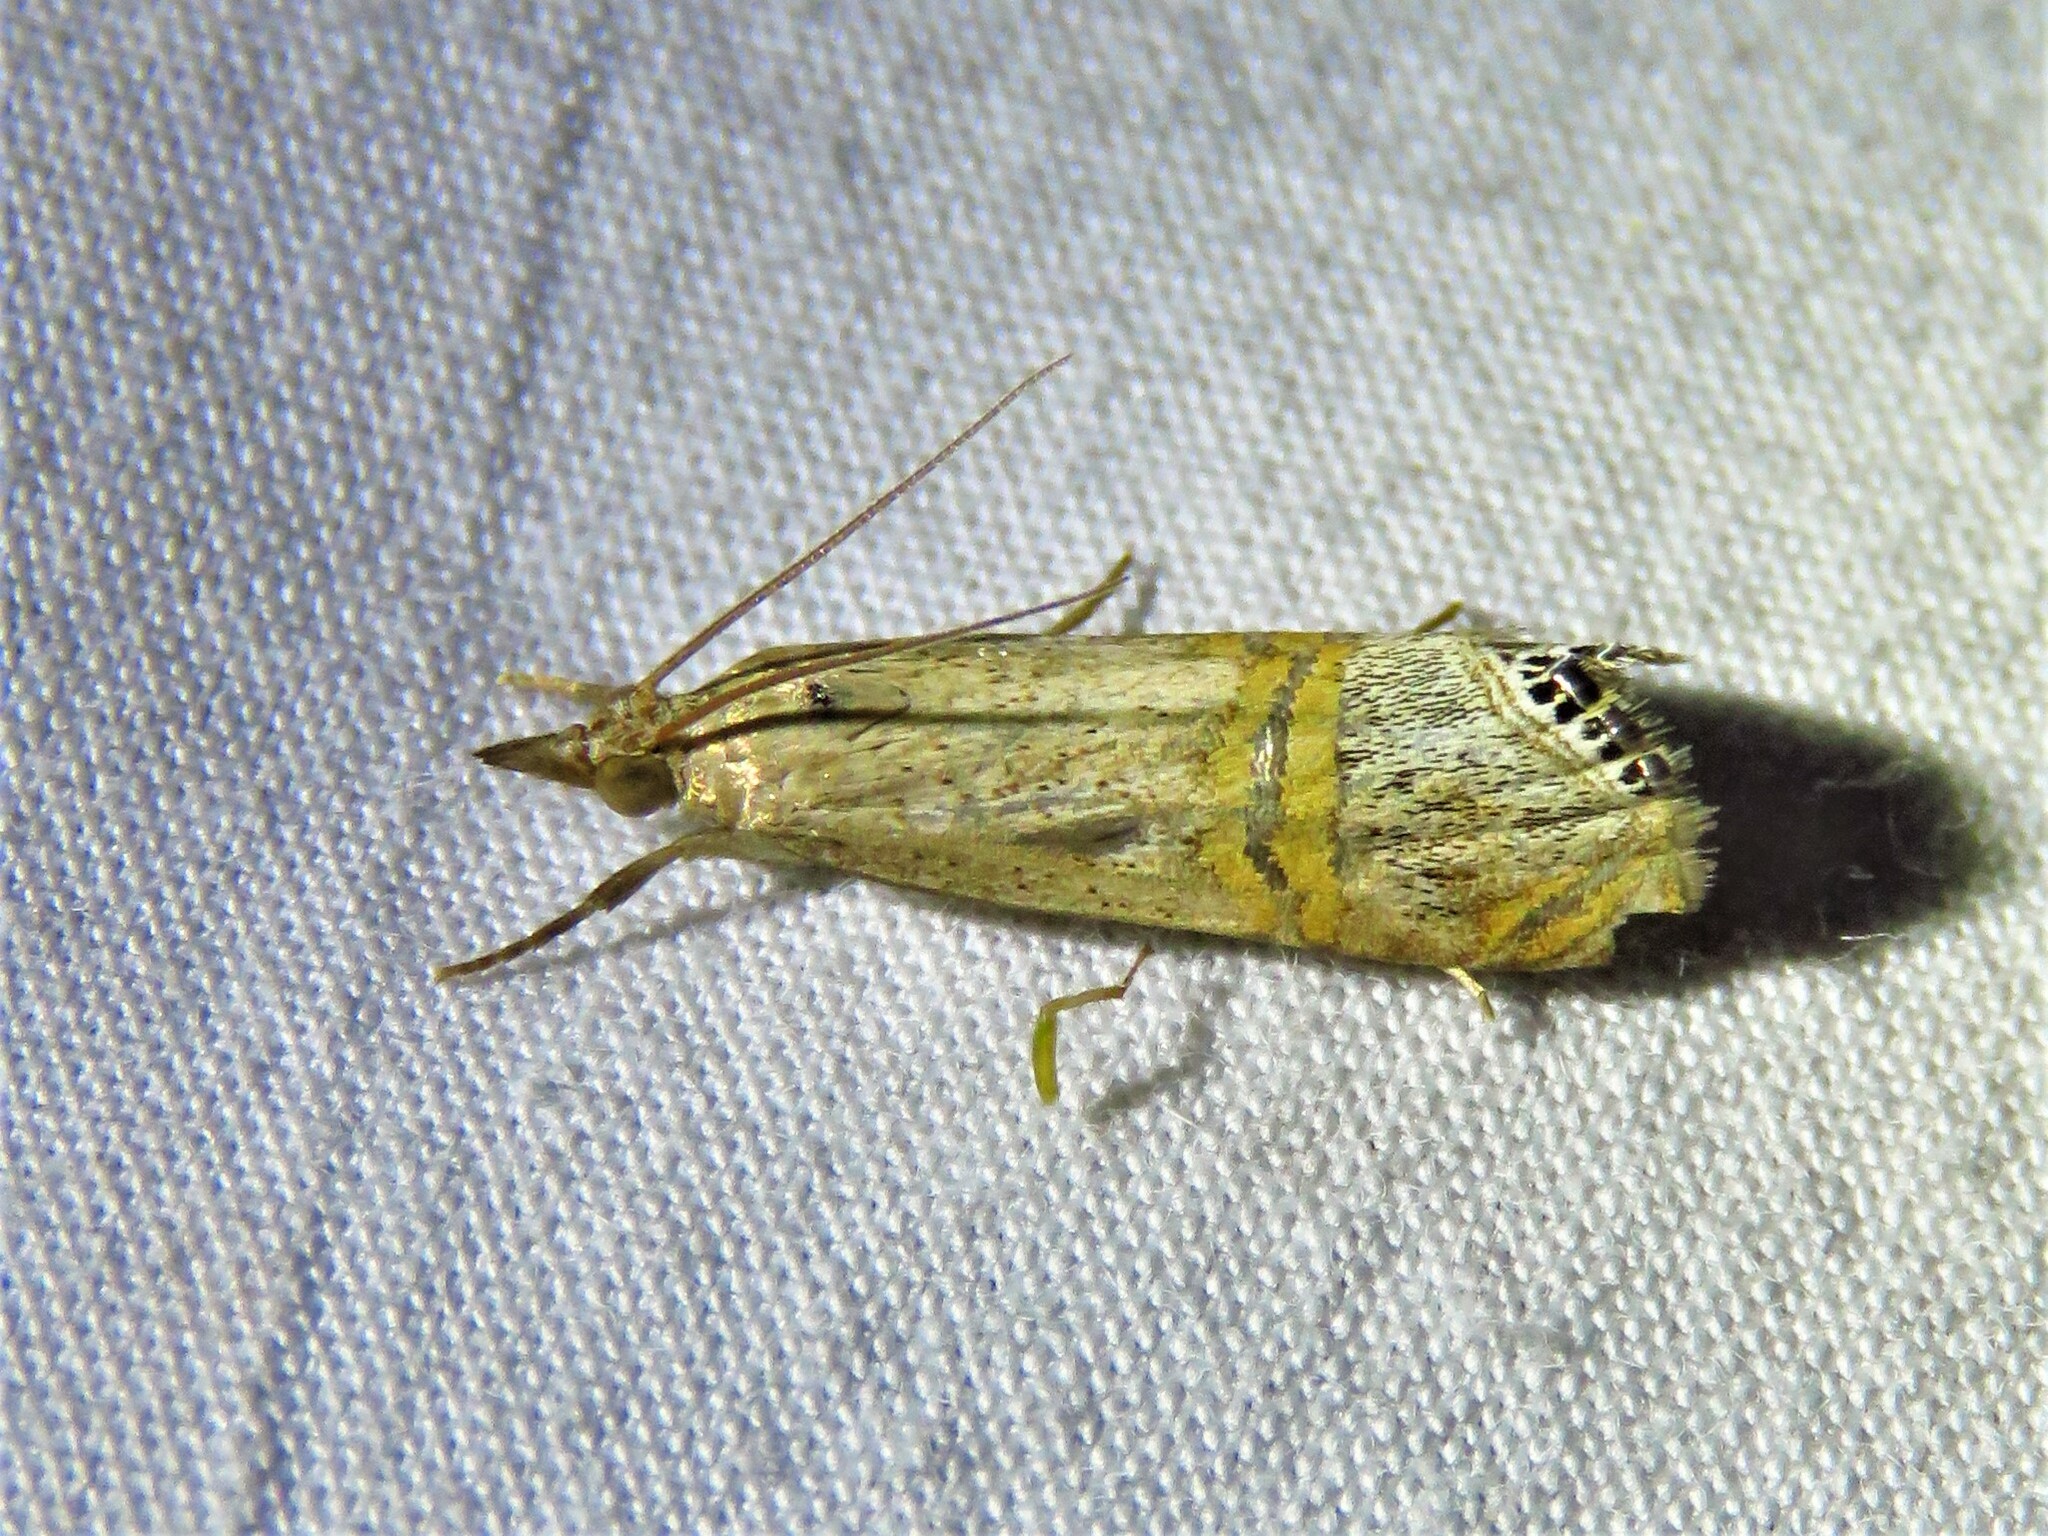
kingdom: Animalia
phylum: Arthropoda
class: Insecta
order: Lepidoptera
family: Crambidae
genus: Euchromius
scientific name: Euchromius ocellea
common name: Necklace veneer moth
